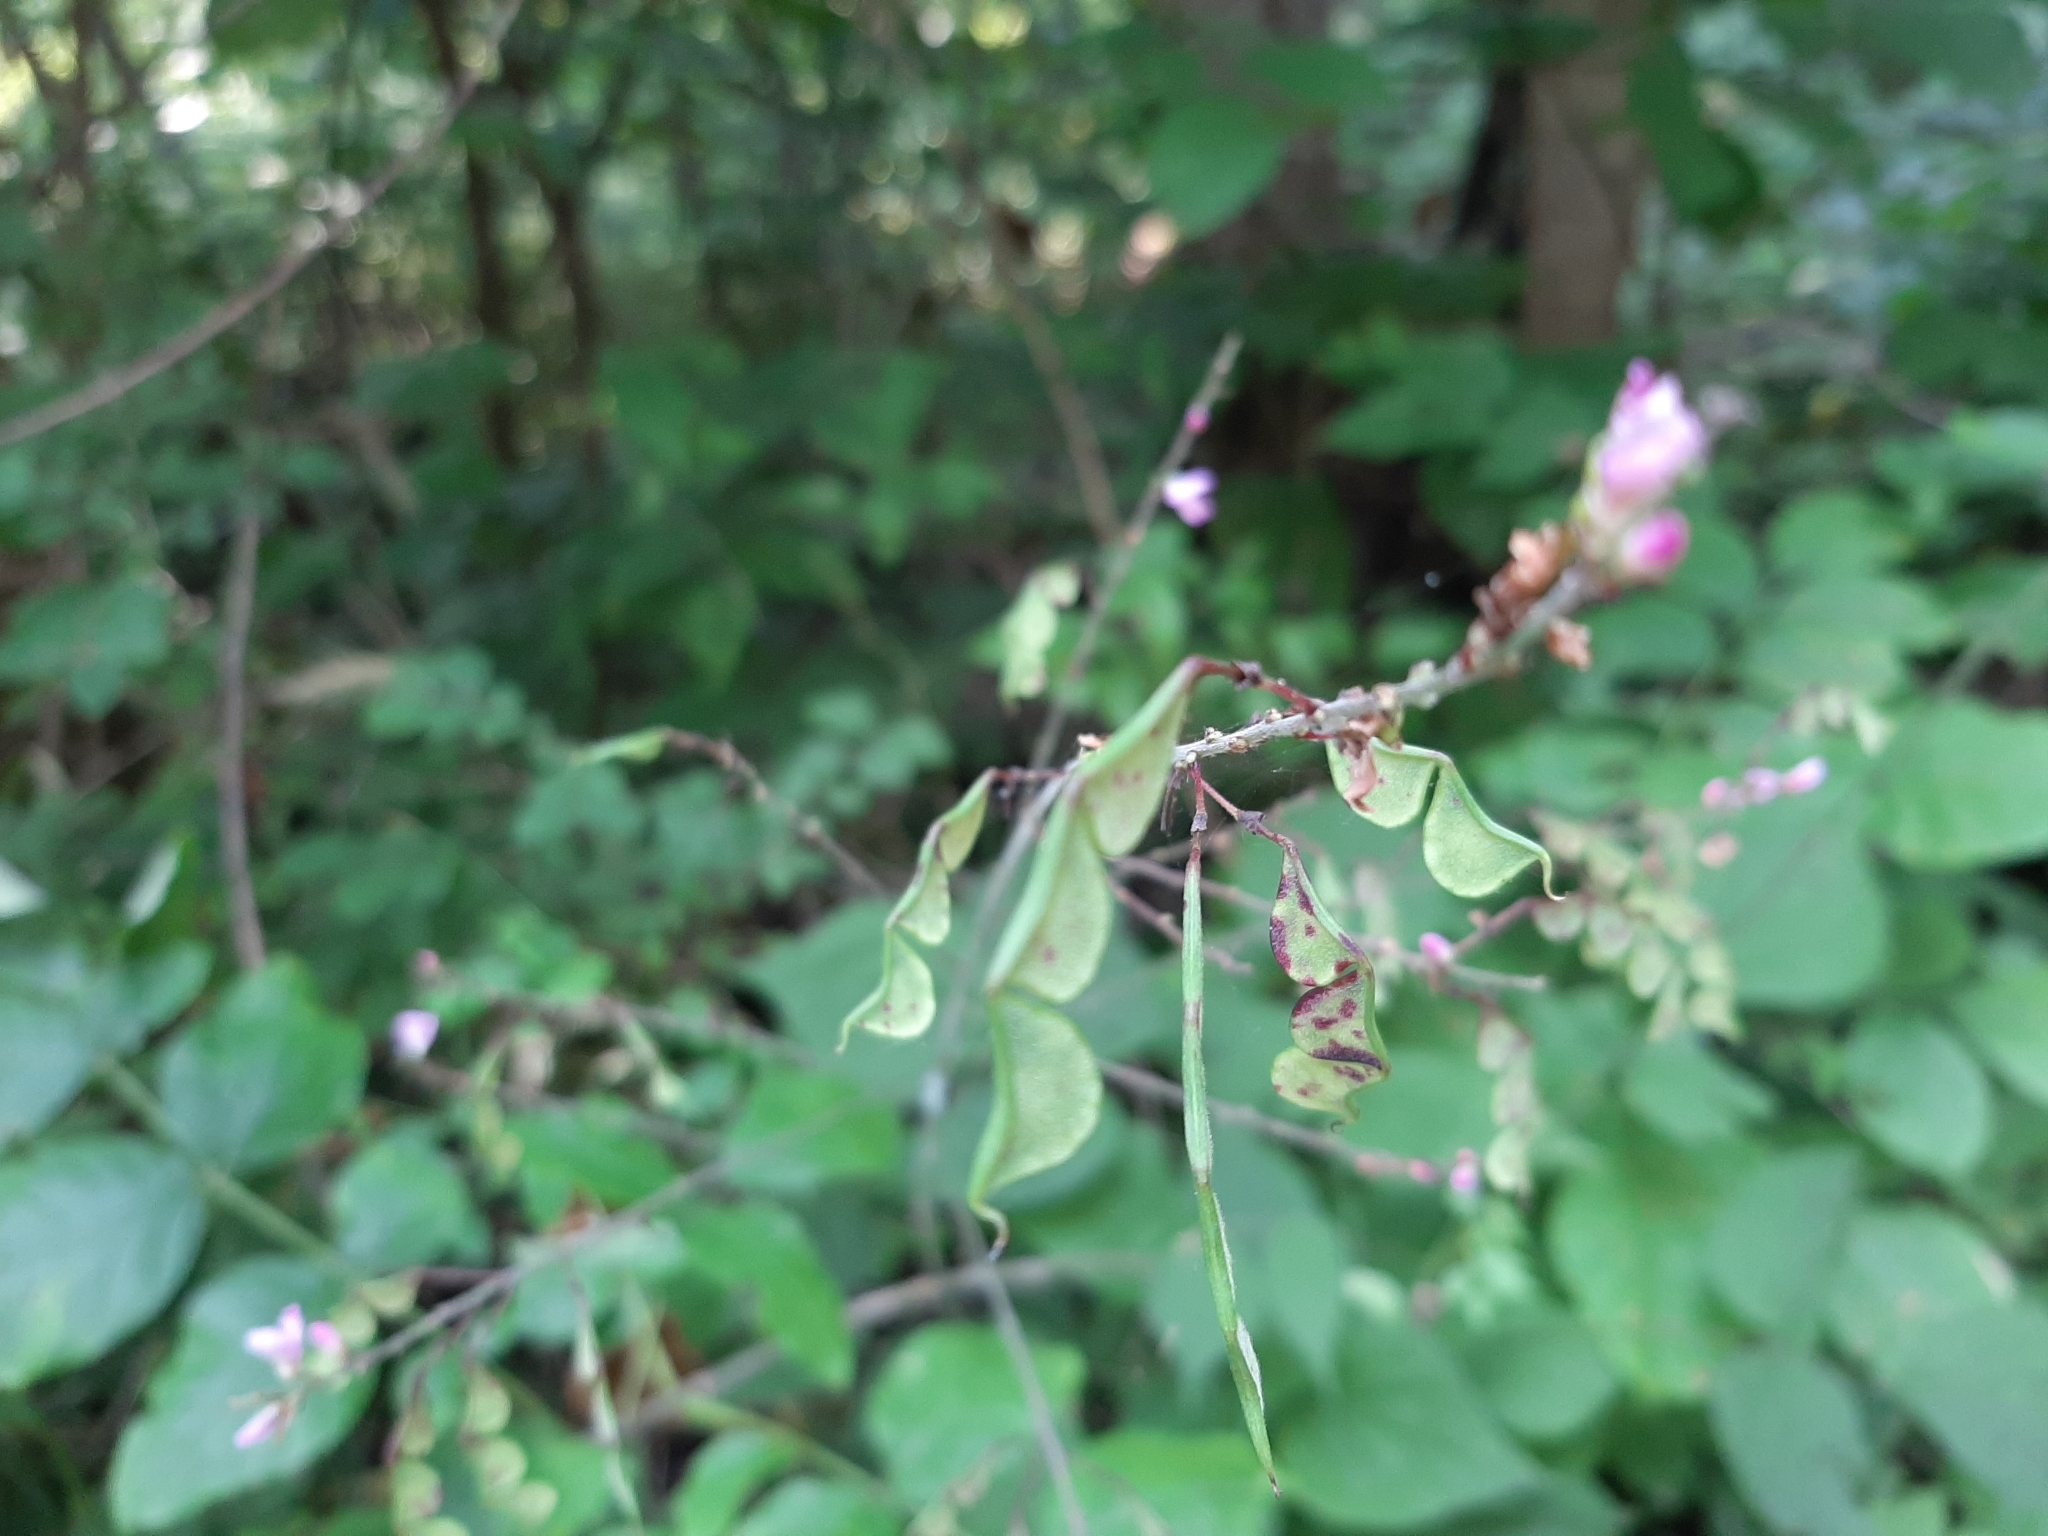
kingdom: Plantae
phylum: Tracheophyta
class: Magnoliopsida
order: Fabales
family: Fabaceae
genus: Hylodesmum
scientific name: Hylodesmum glutinosum
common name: Clustered-leaved tick-trefoil
